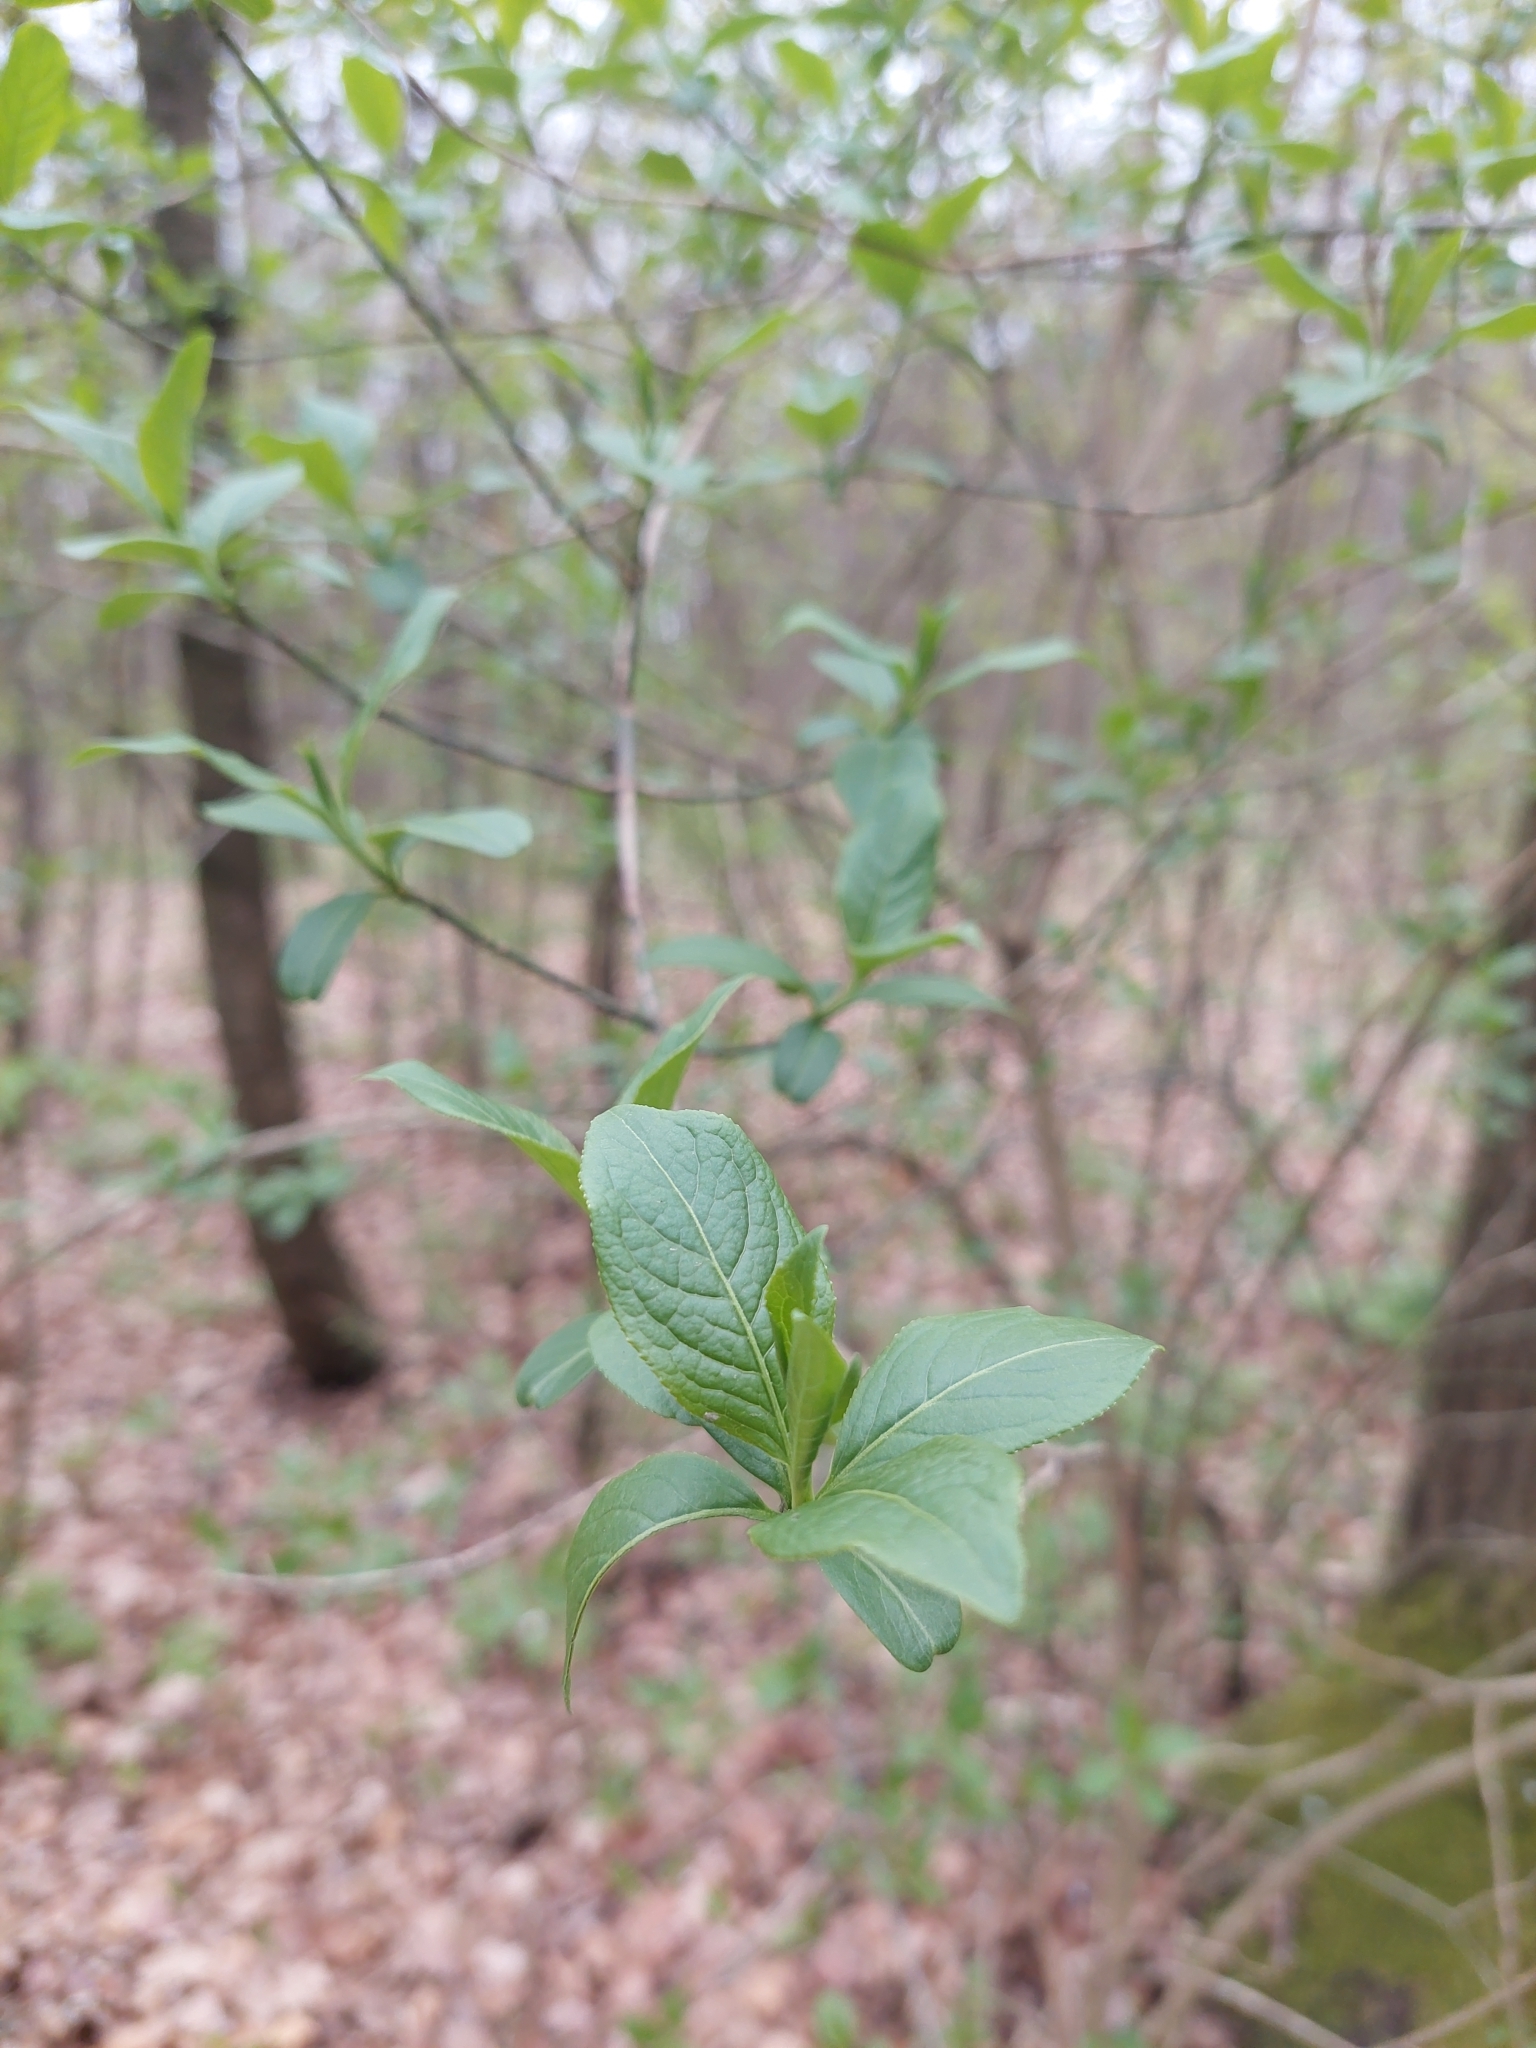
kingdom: Plantae
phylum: Tracheophyta
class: Magnoliopsida
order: Celastrales
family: Celastraceae
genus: Euonymus
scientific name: Euonymus europaeus
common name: Spindle
